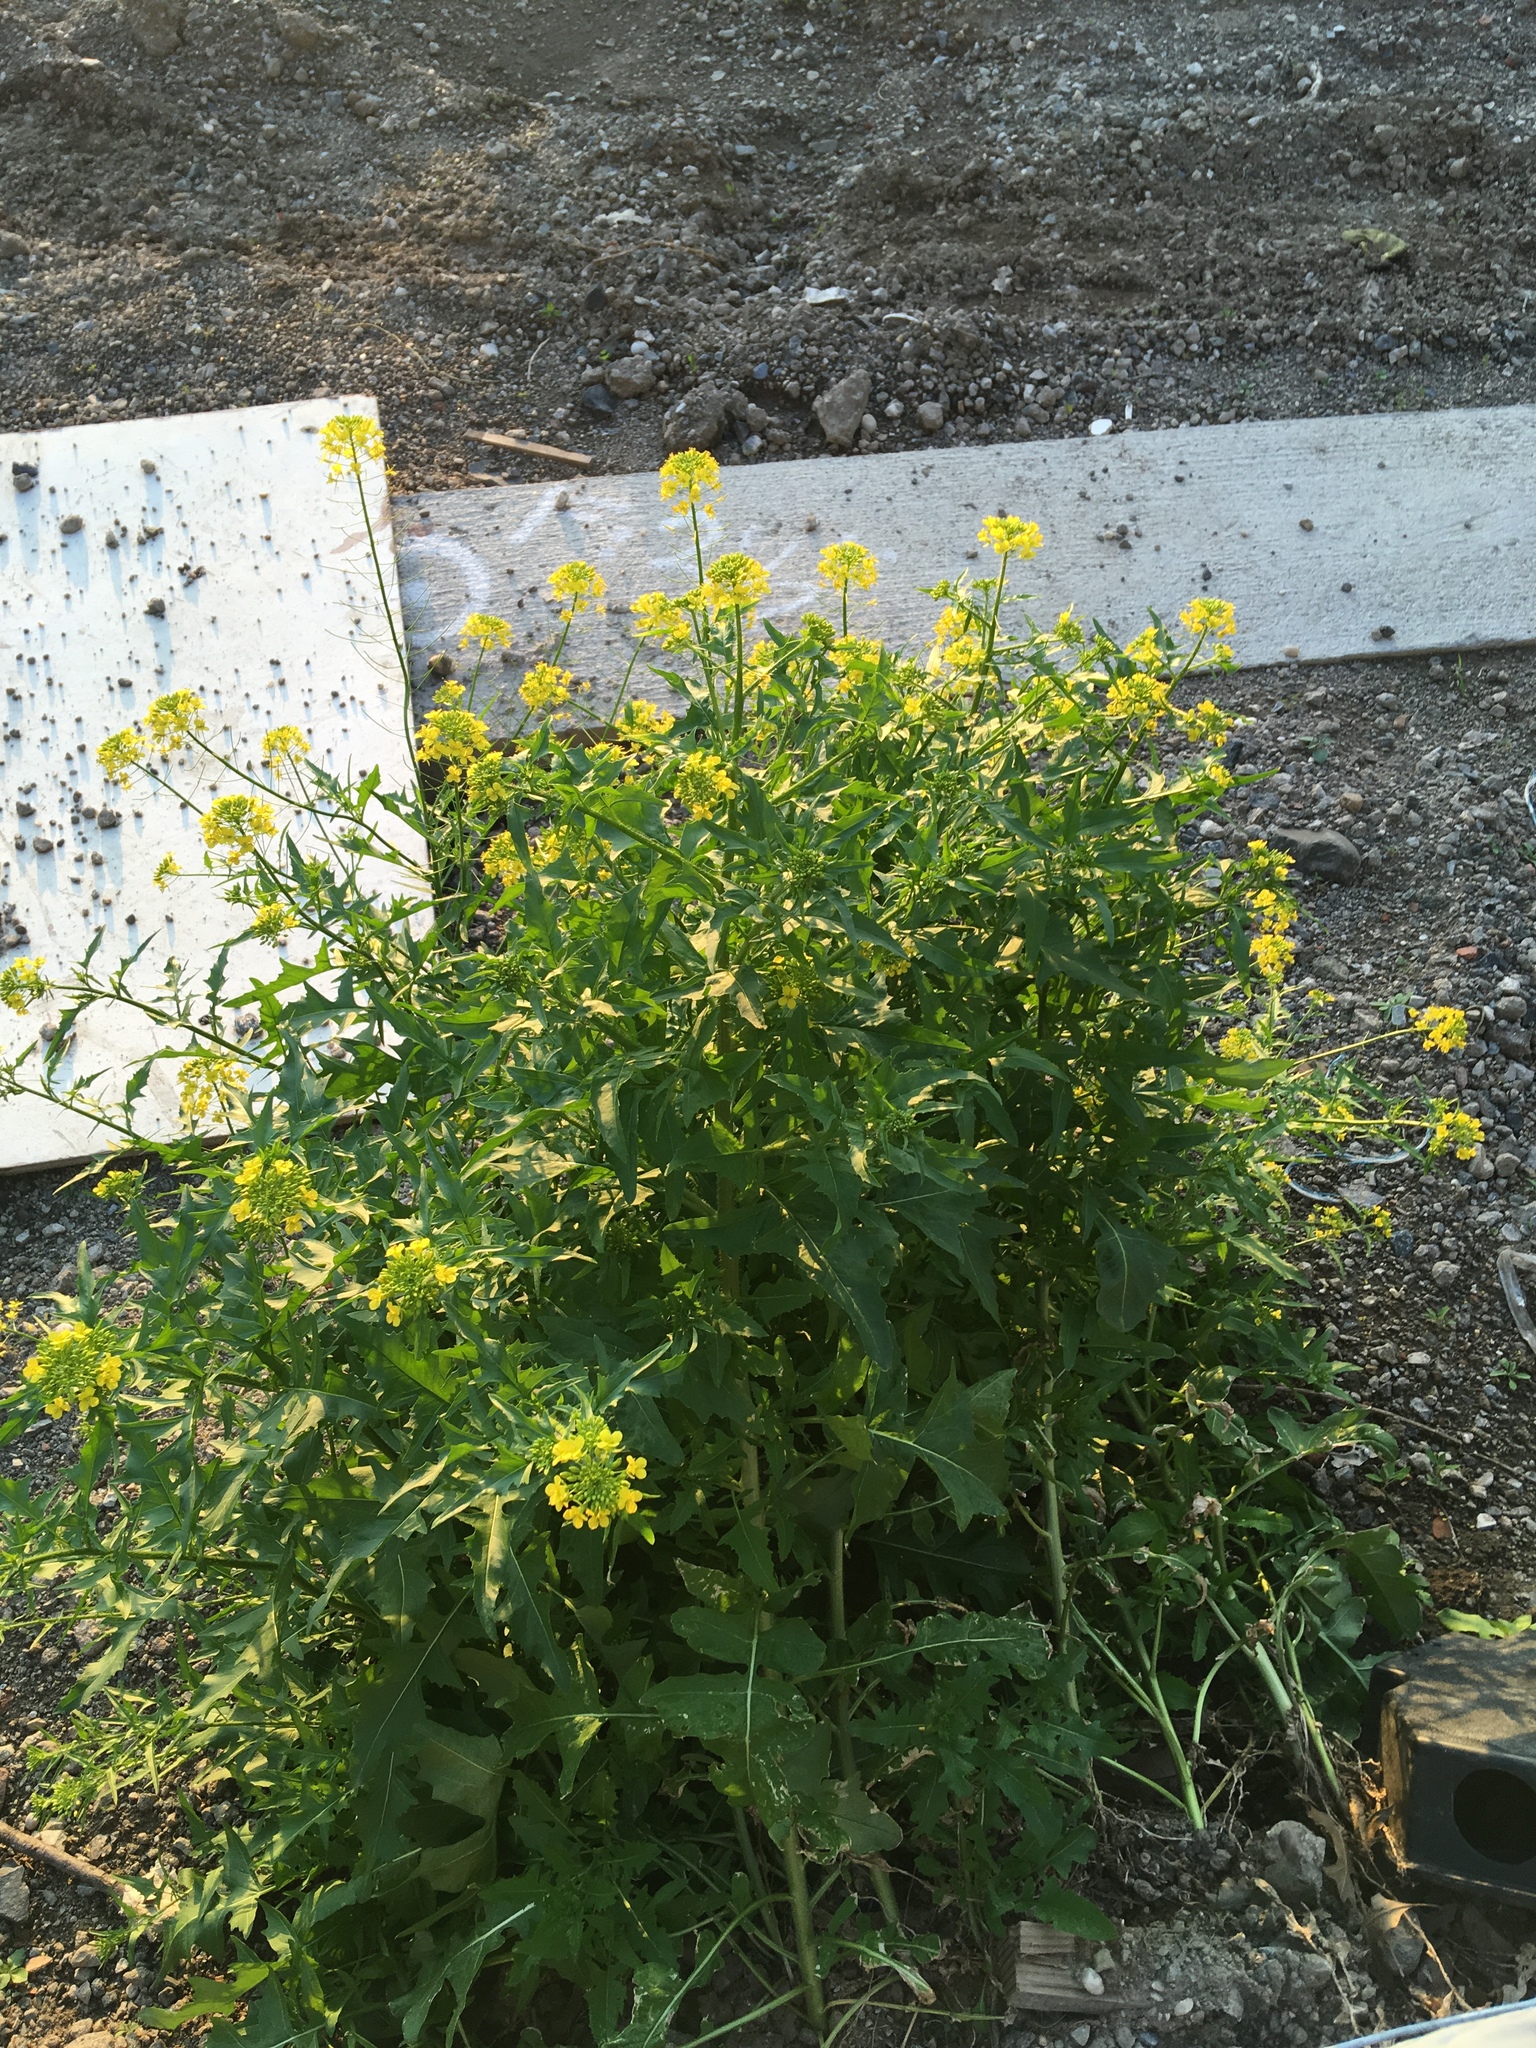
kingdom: Plantae
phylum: Tracheophyta
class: Magnoliopsida
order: Brassicales
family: Brassicaceae
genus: Sisymbrium
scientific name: Sisymbrium loeselii
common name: False london-rocket
